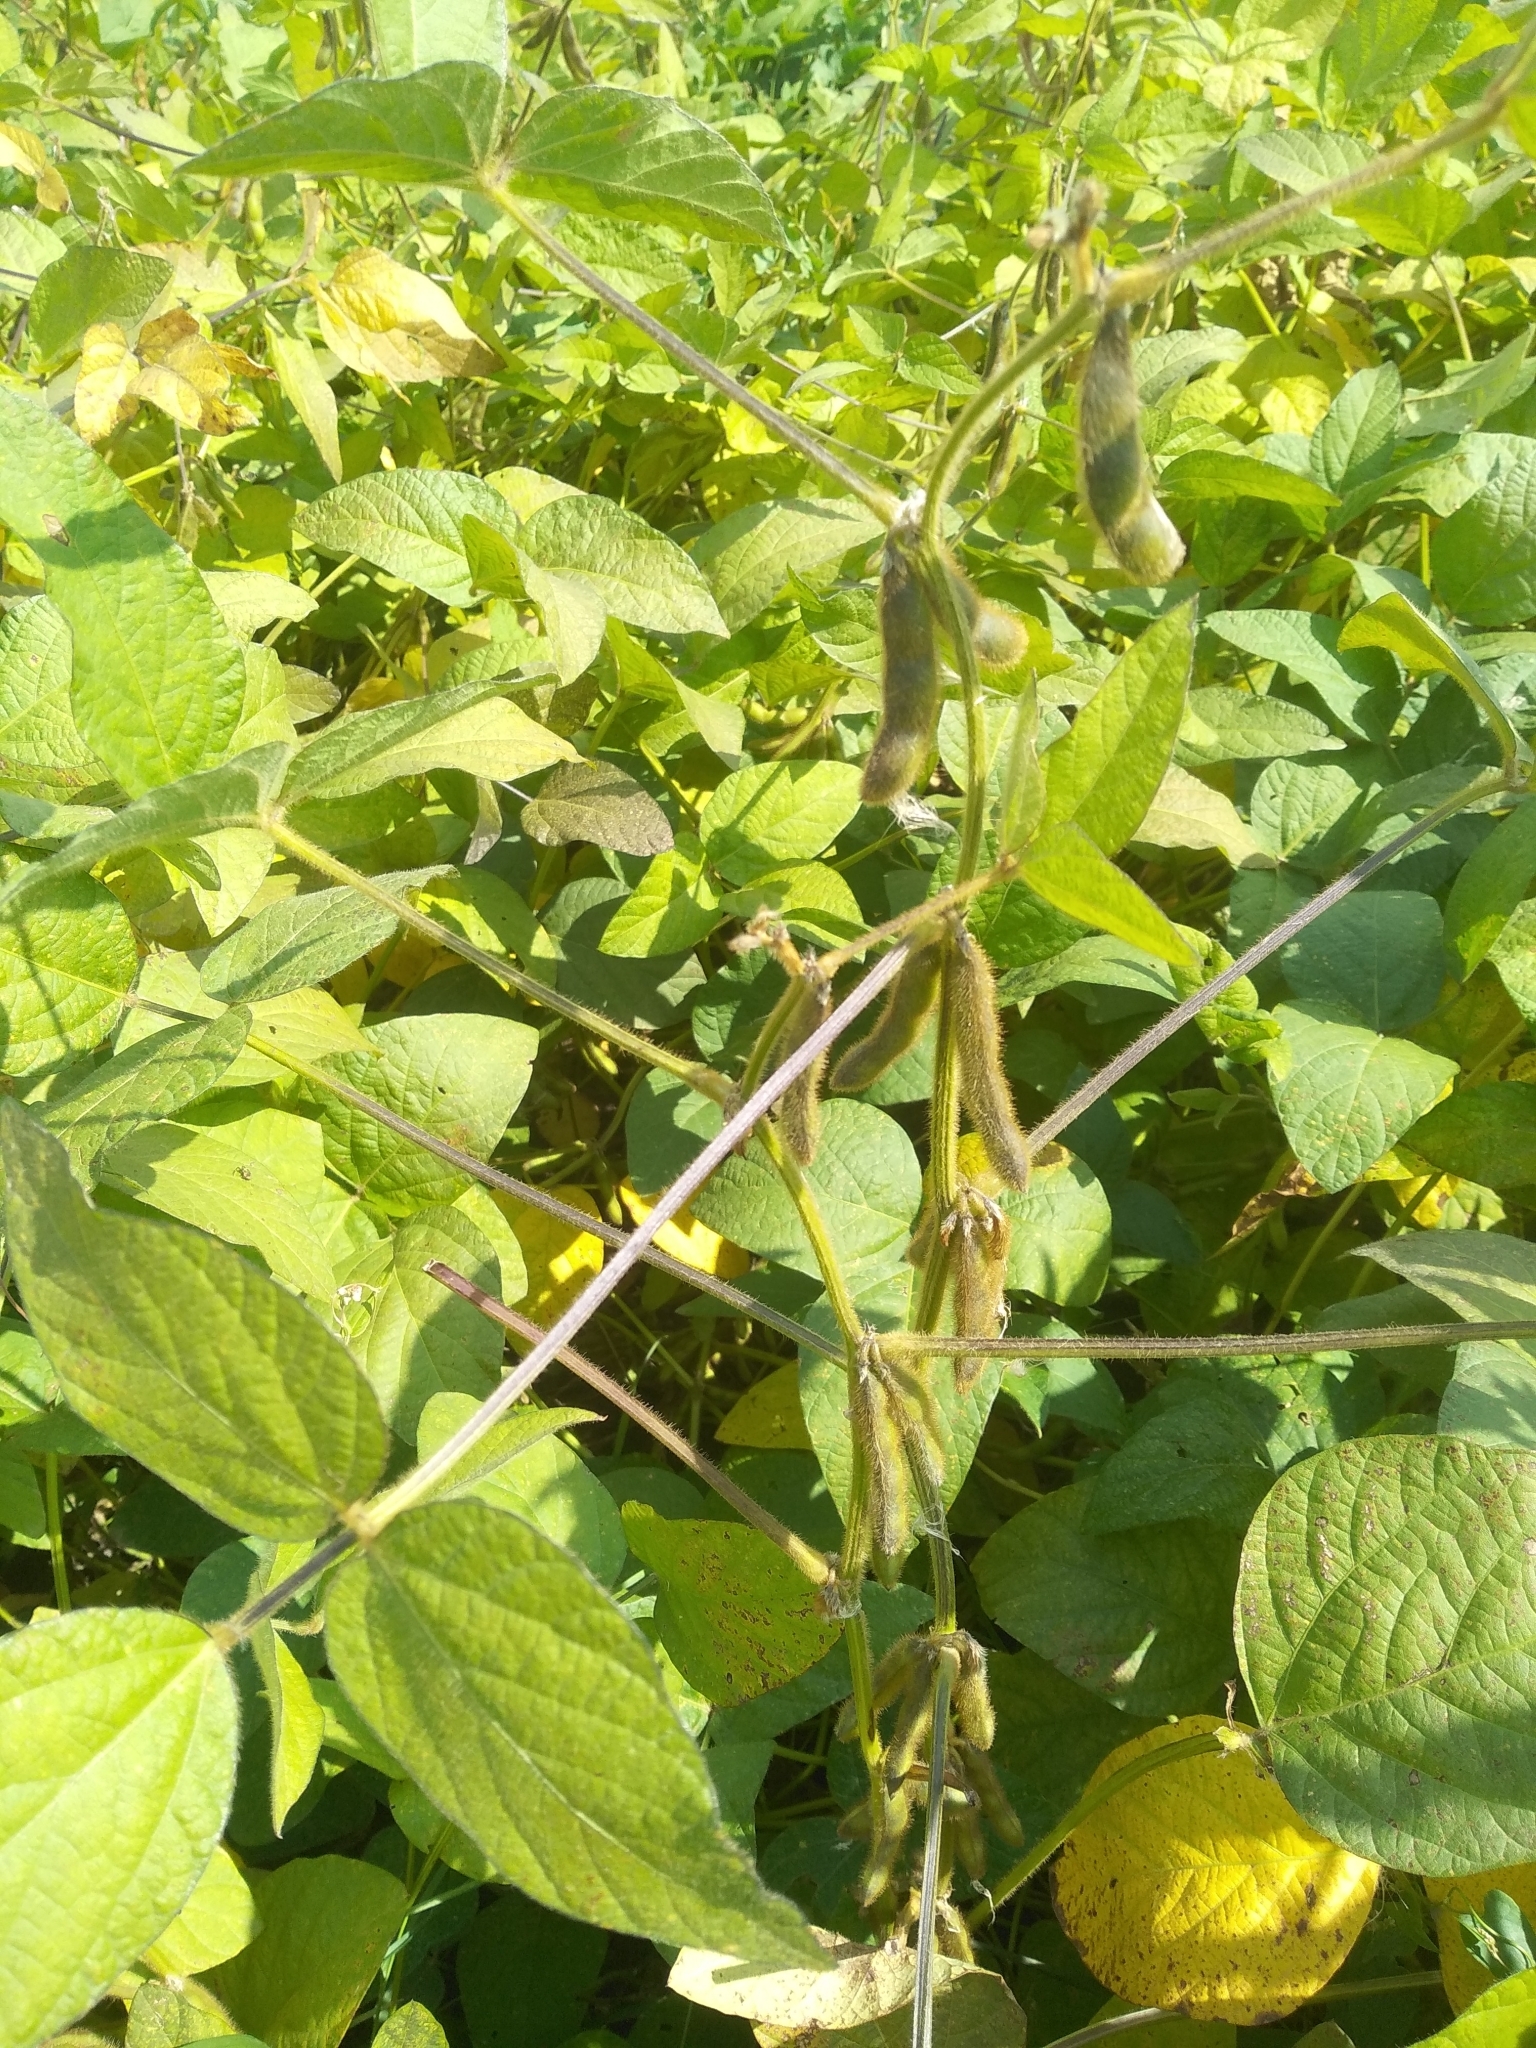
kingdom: Plantae
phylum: Tracheophyta
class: Magnoliopsida
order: Fabales
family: Fabaceae
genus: Glycine
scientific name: Glycine max
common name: Soya-bean
